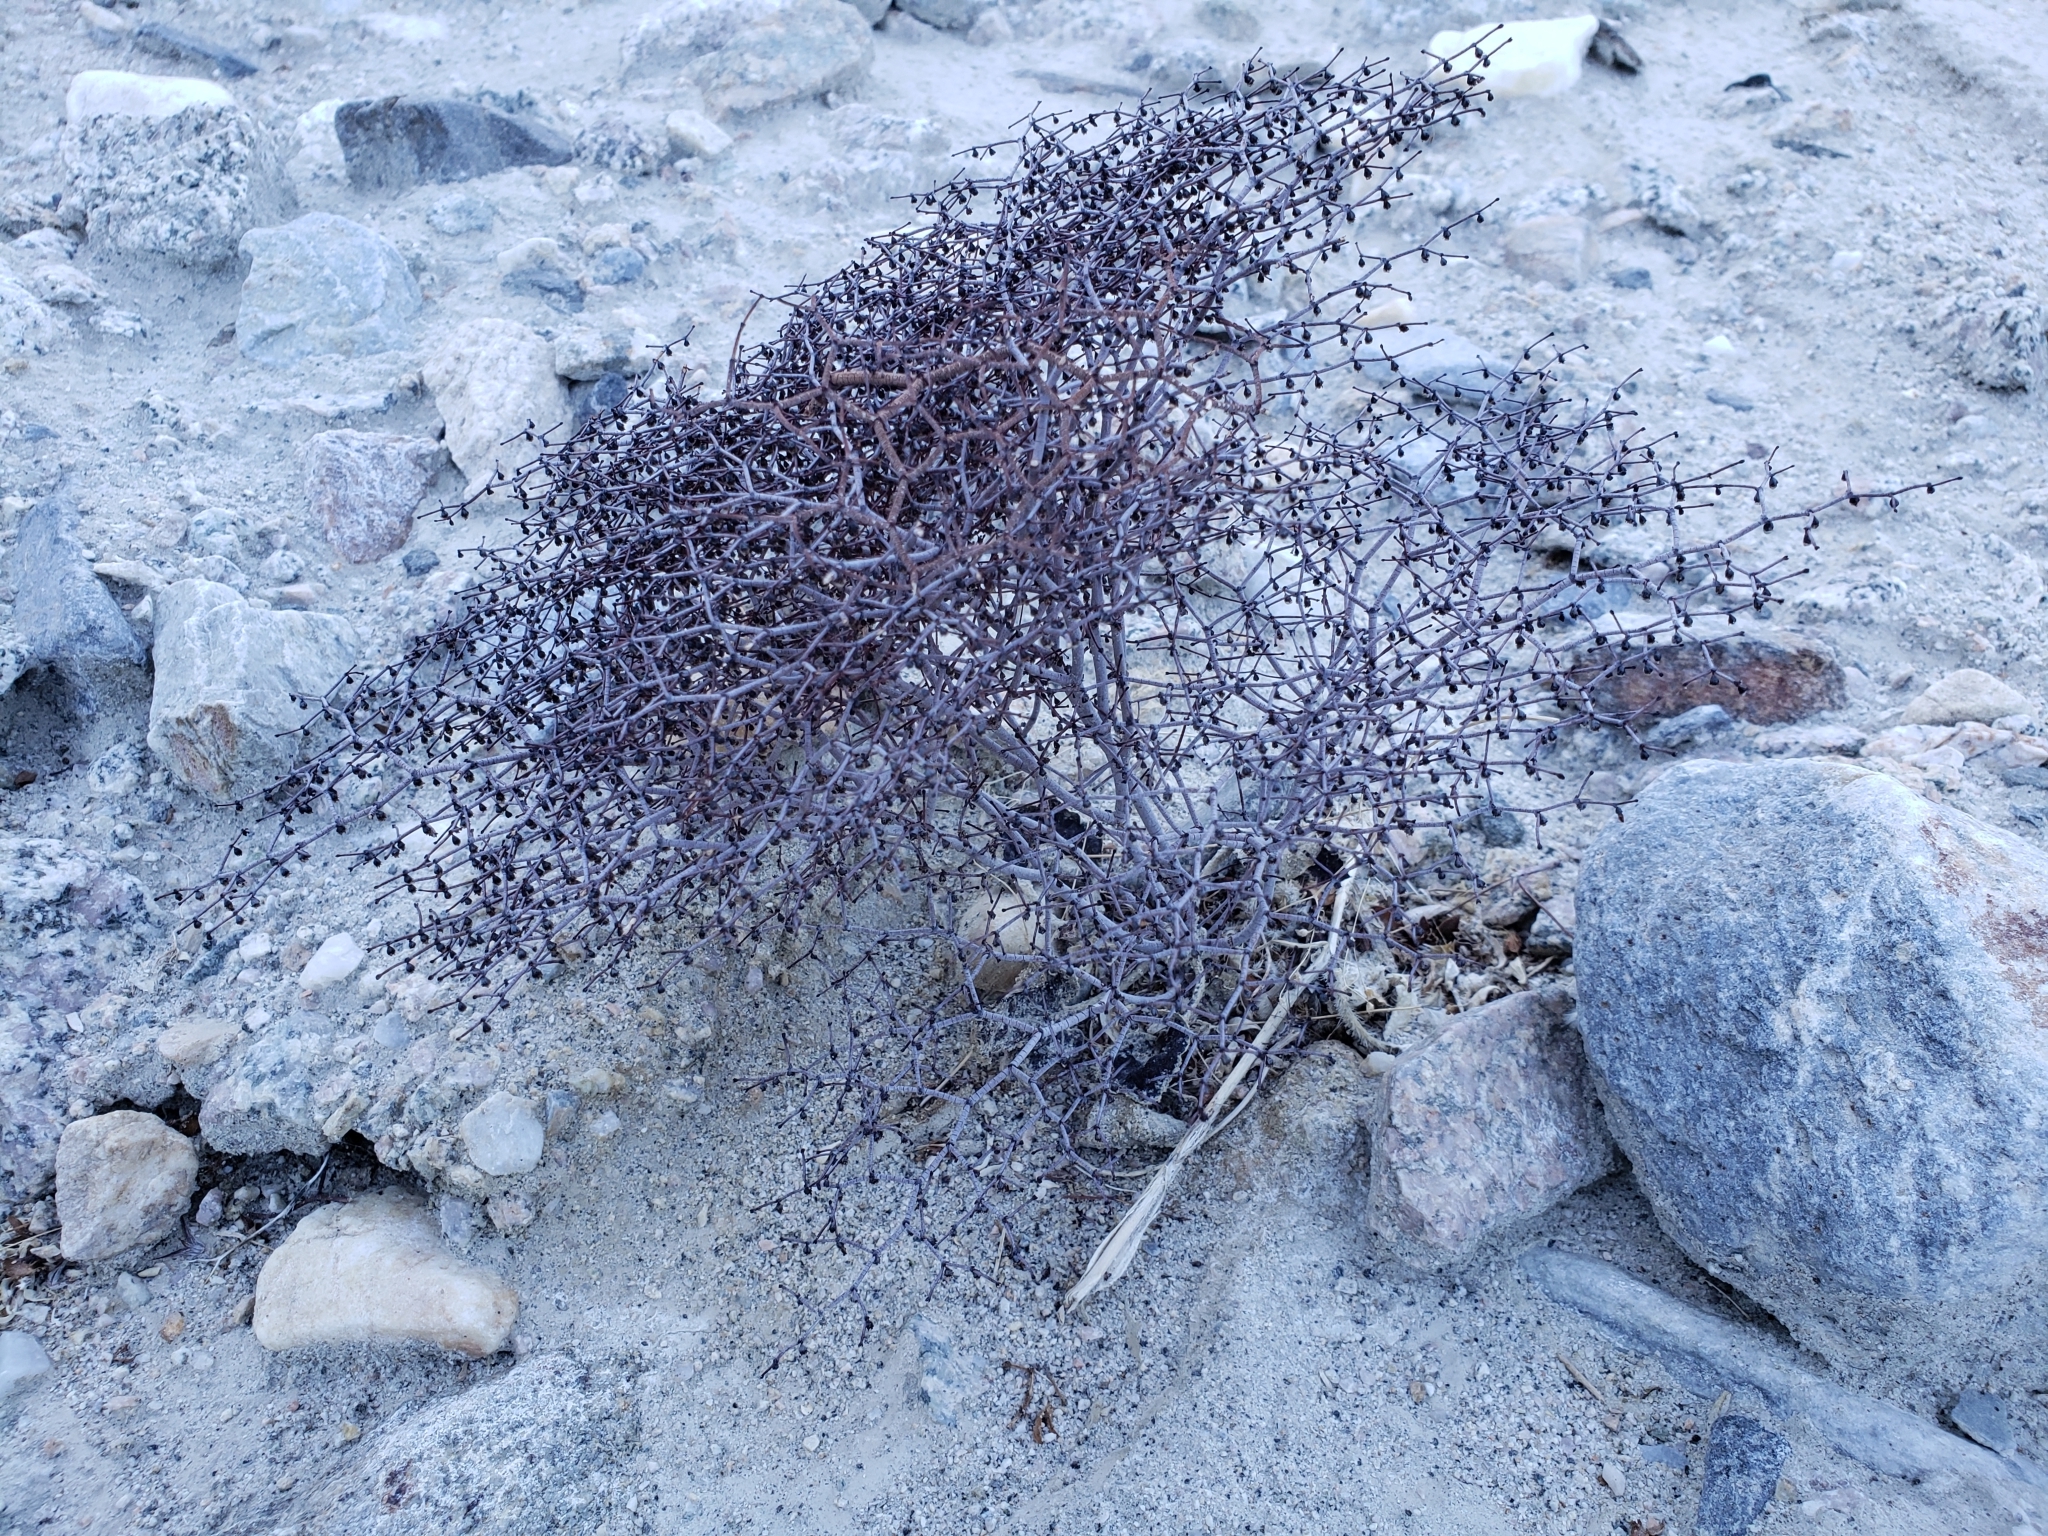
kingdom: Plantae
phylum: Tracheophyta
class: Magnoliopsida
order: Caryophyllales
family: Polygonaceae
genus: Eriogonum
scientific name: Eriogonum rixfordii
